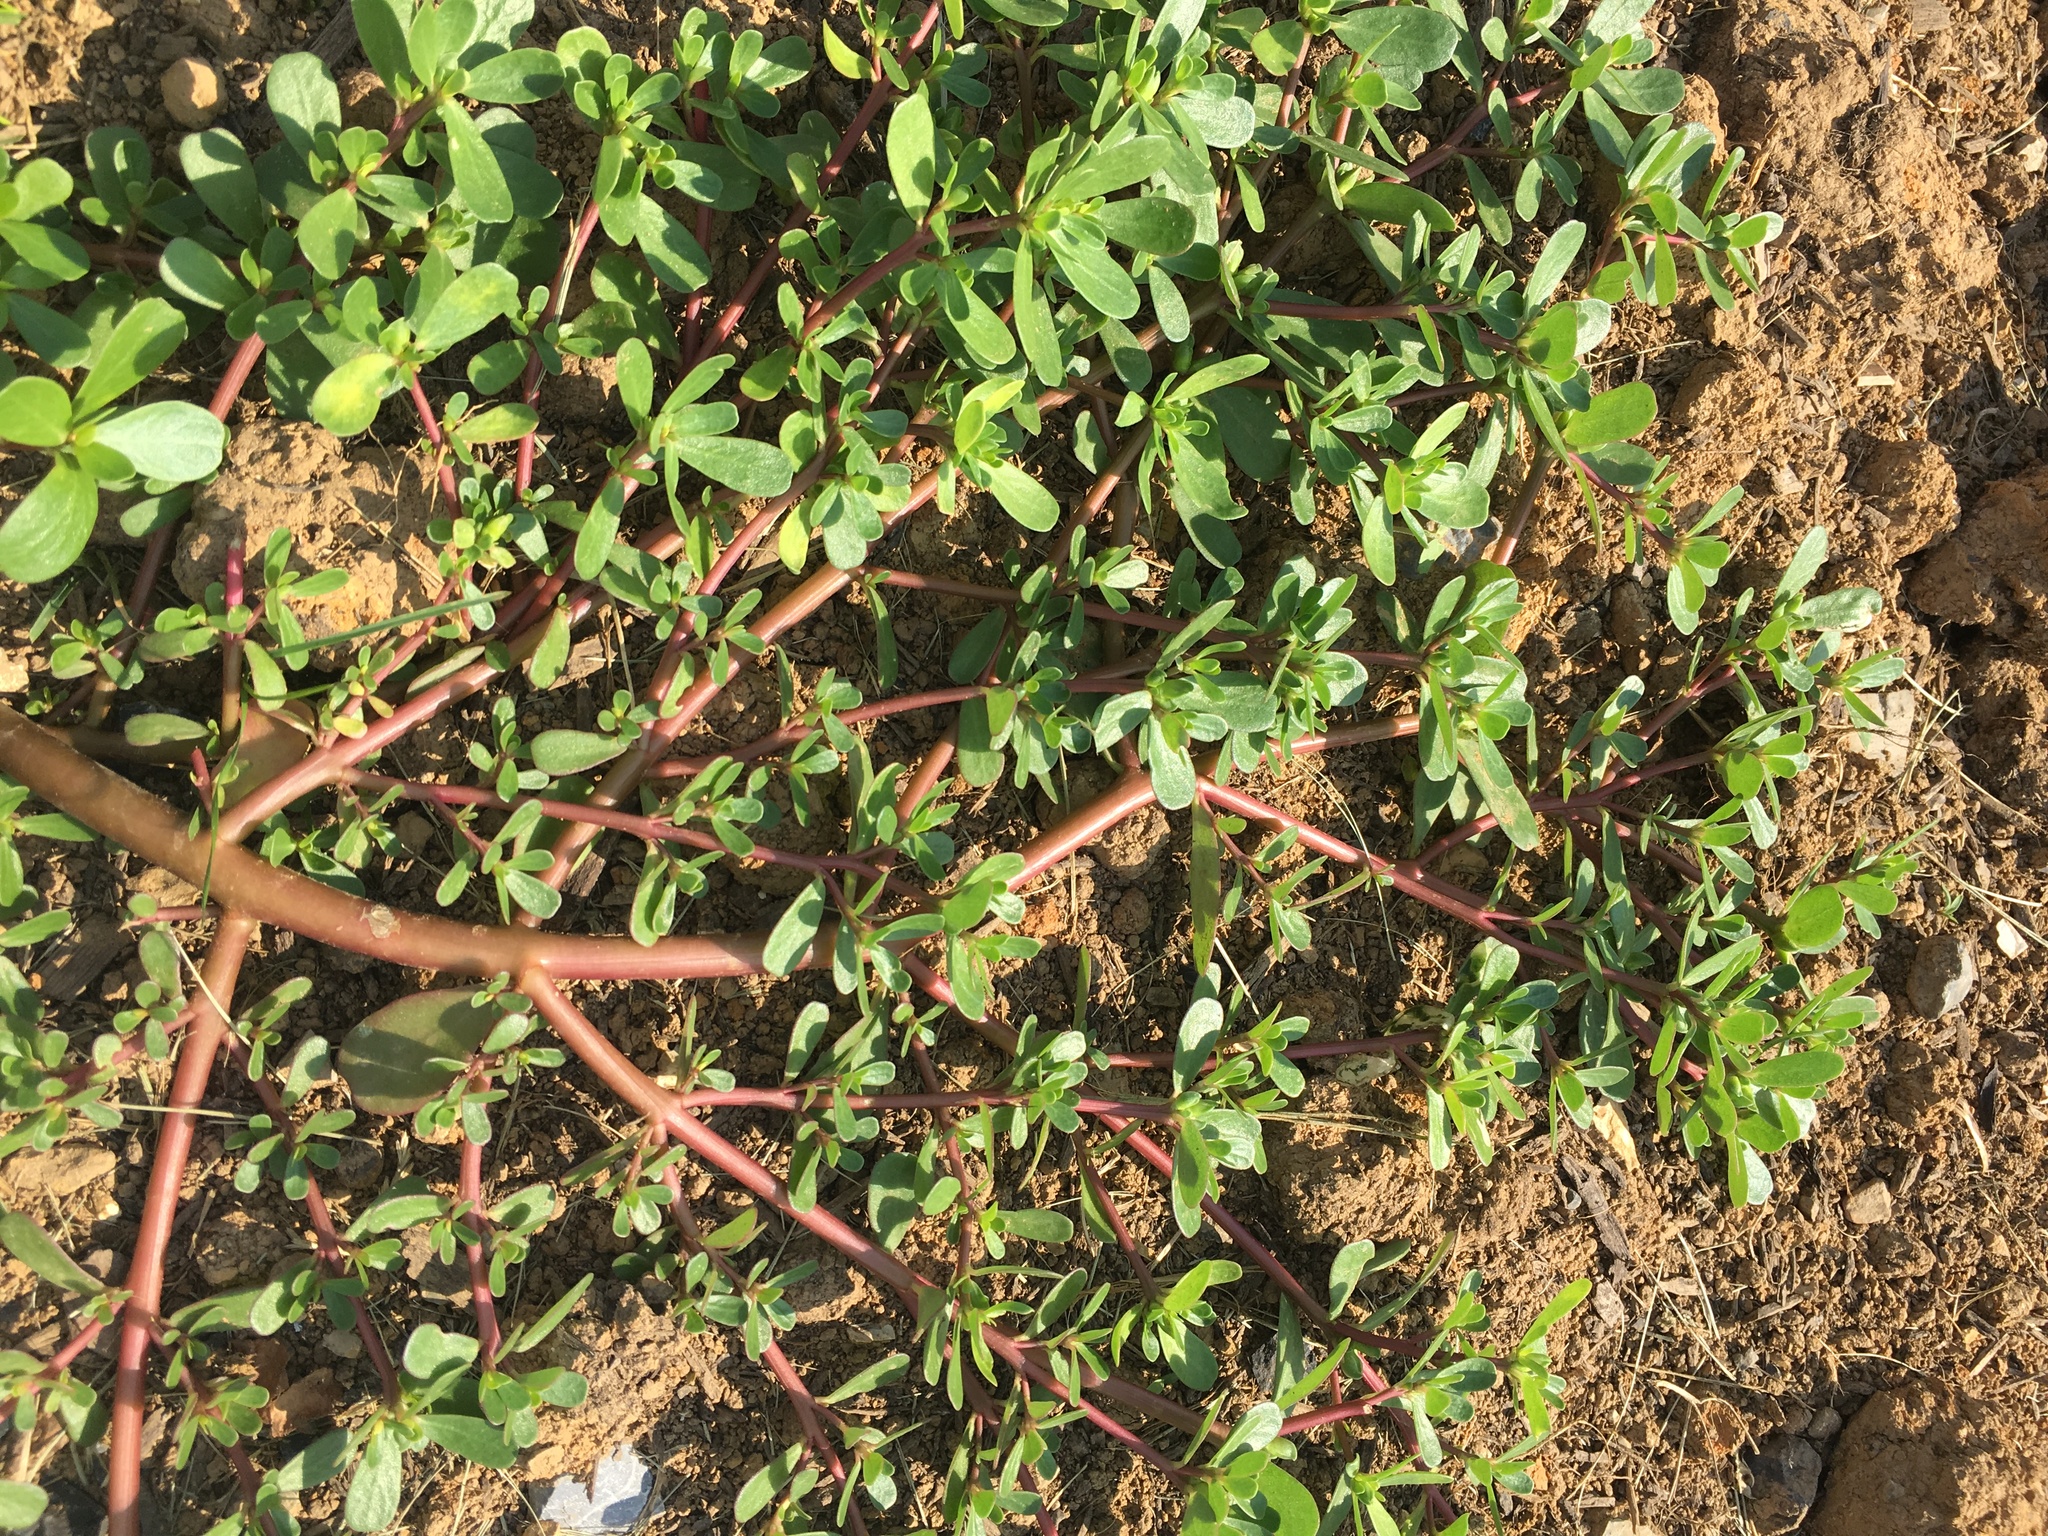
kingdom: Plantae
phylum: Tracheophyta
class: Magnoliopsida
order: Caryophyllales
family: Portulacaceae
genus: Portulaca
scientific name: Portulaca oleracea
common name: Common purslane
